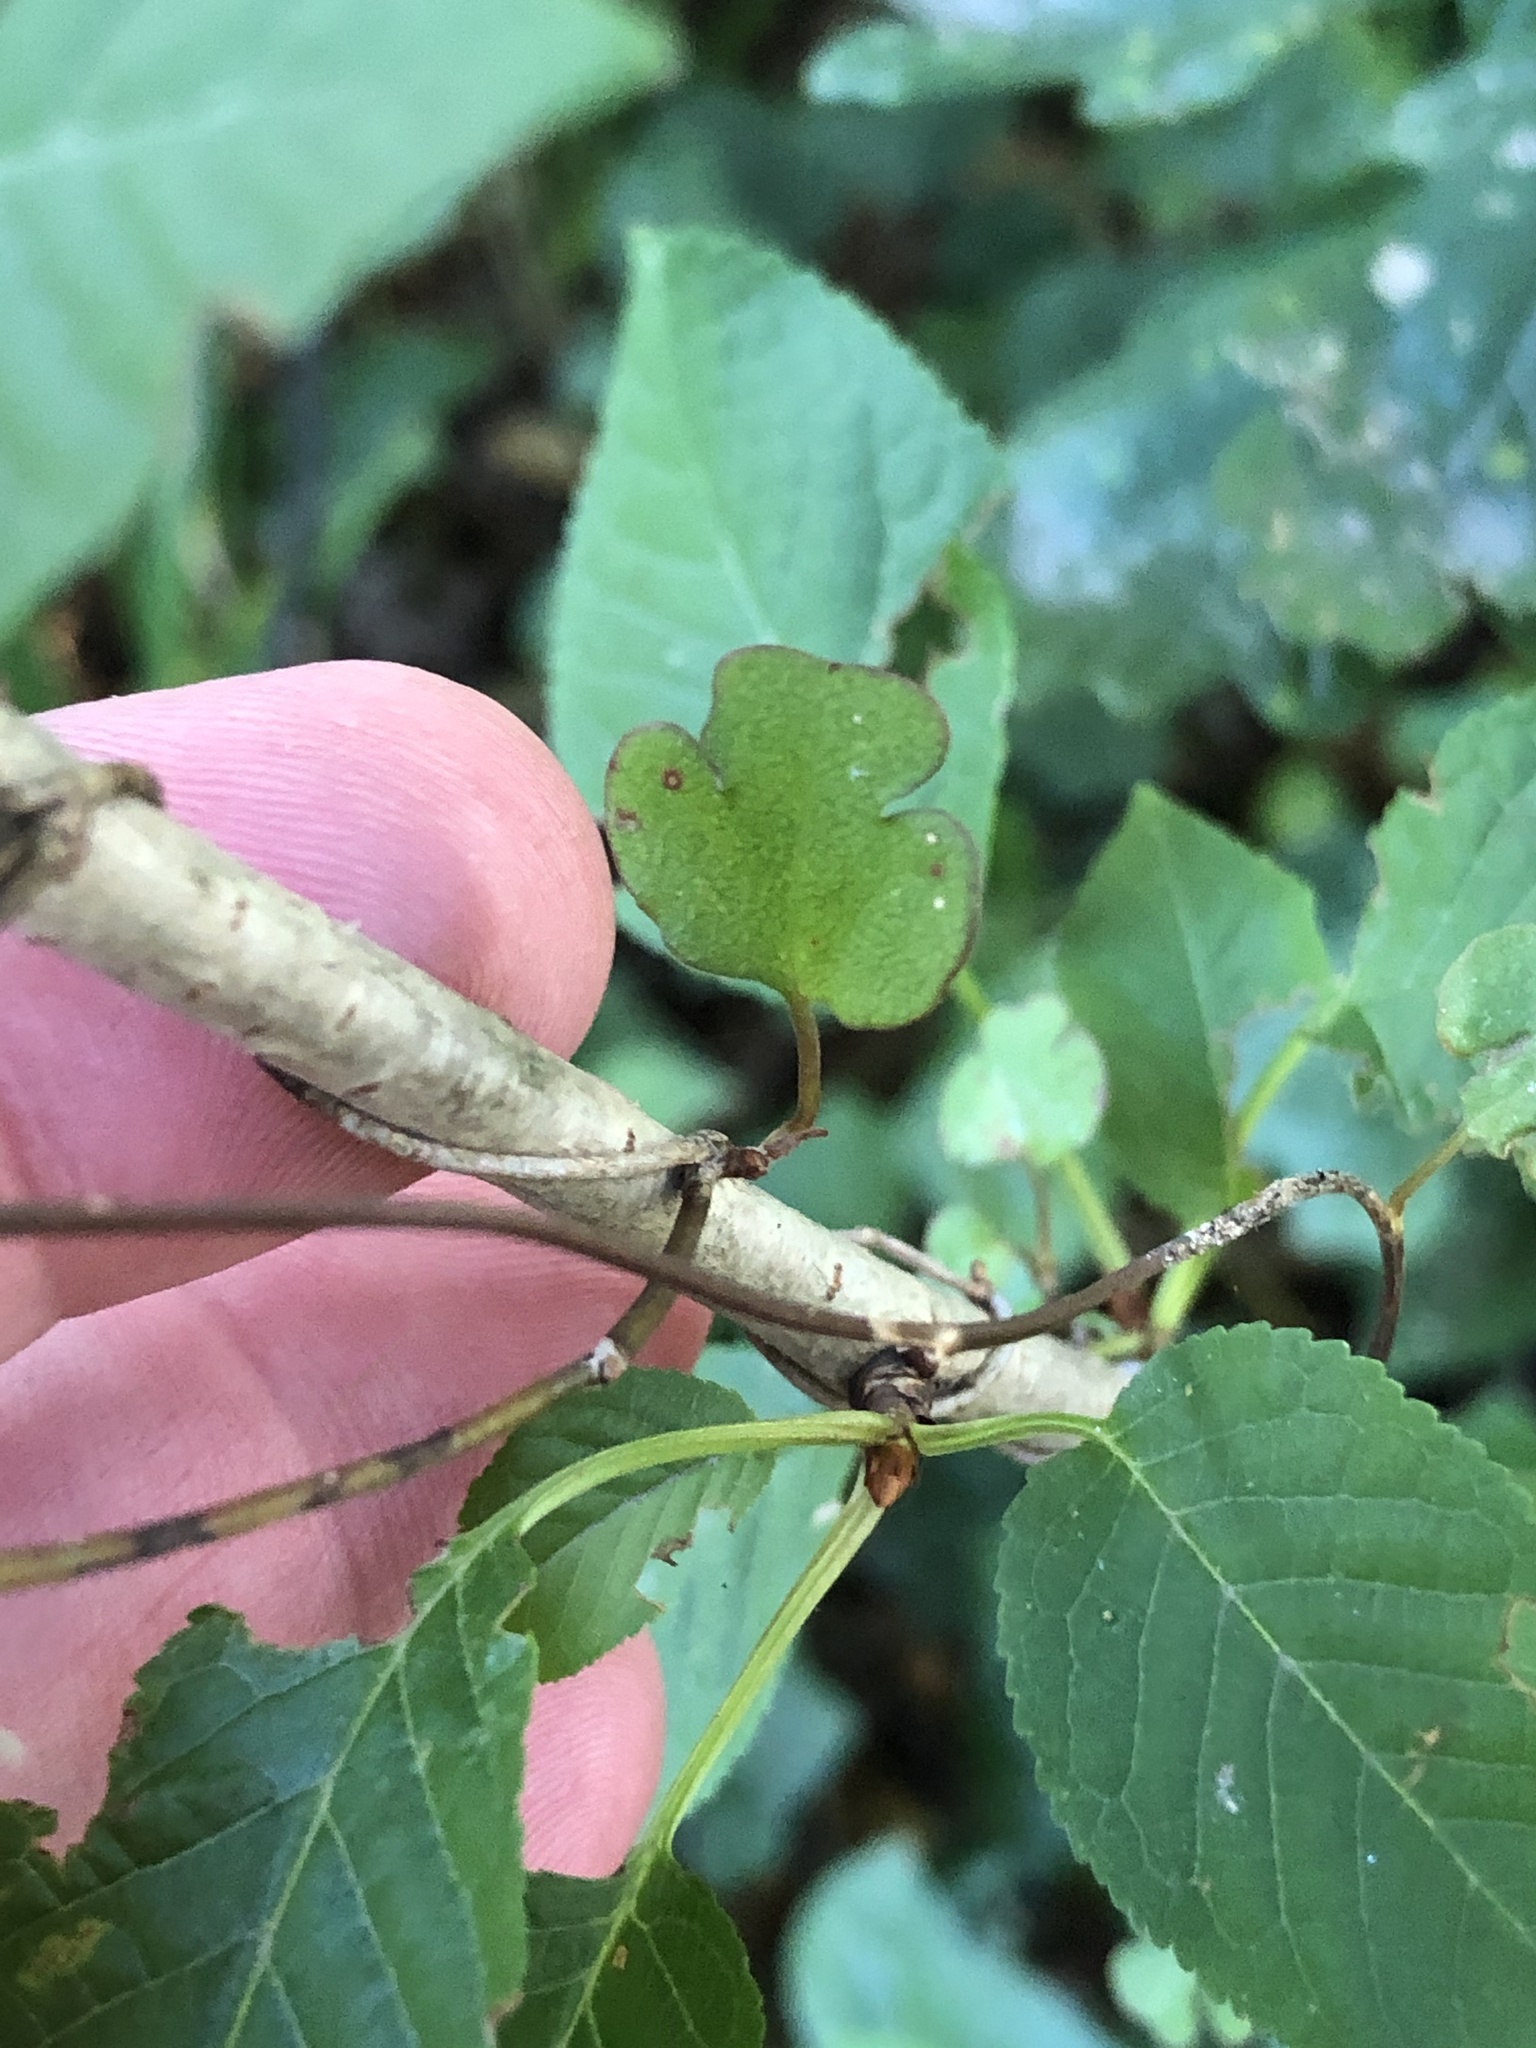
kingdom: Plantae
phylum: Tracheophyta
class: Magnoliopsida
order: Caryophyllales
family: Polygonaceae
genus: Muehlenbeckia
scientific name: Muehlenbeckia australis
